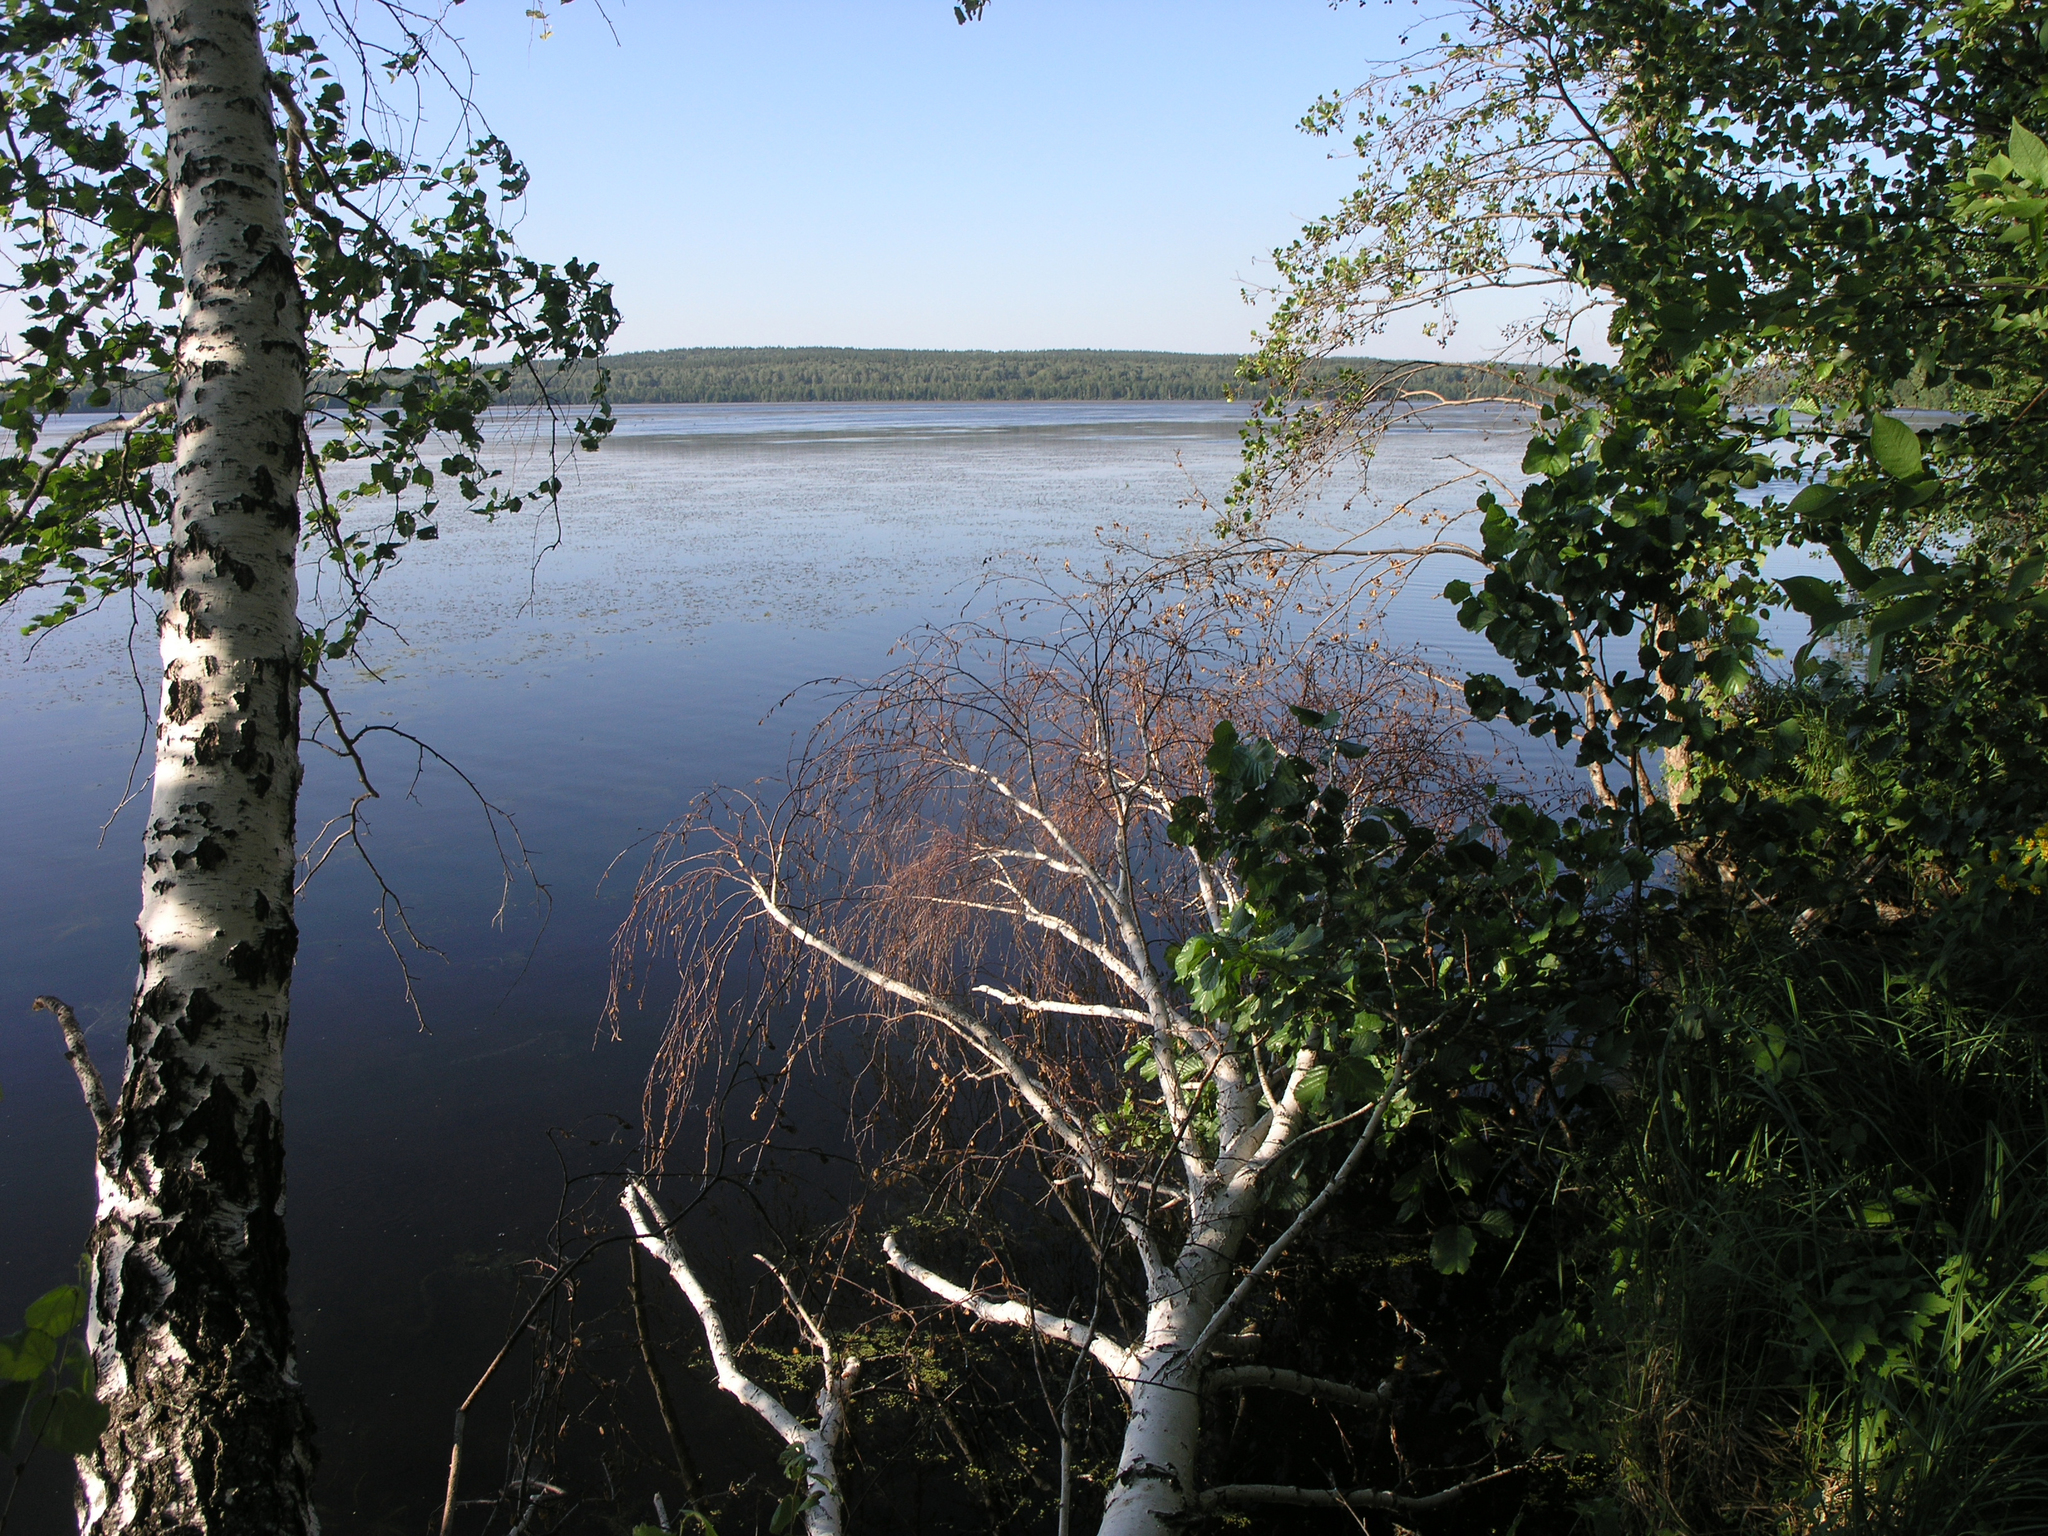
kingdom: Plantae
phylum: Tracheophyta
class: Magnoliopsida
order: Fagales
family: Betulaceae
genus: Alnus
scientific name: Alnus glutinosa
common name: Black alder
